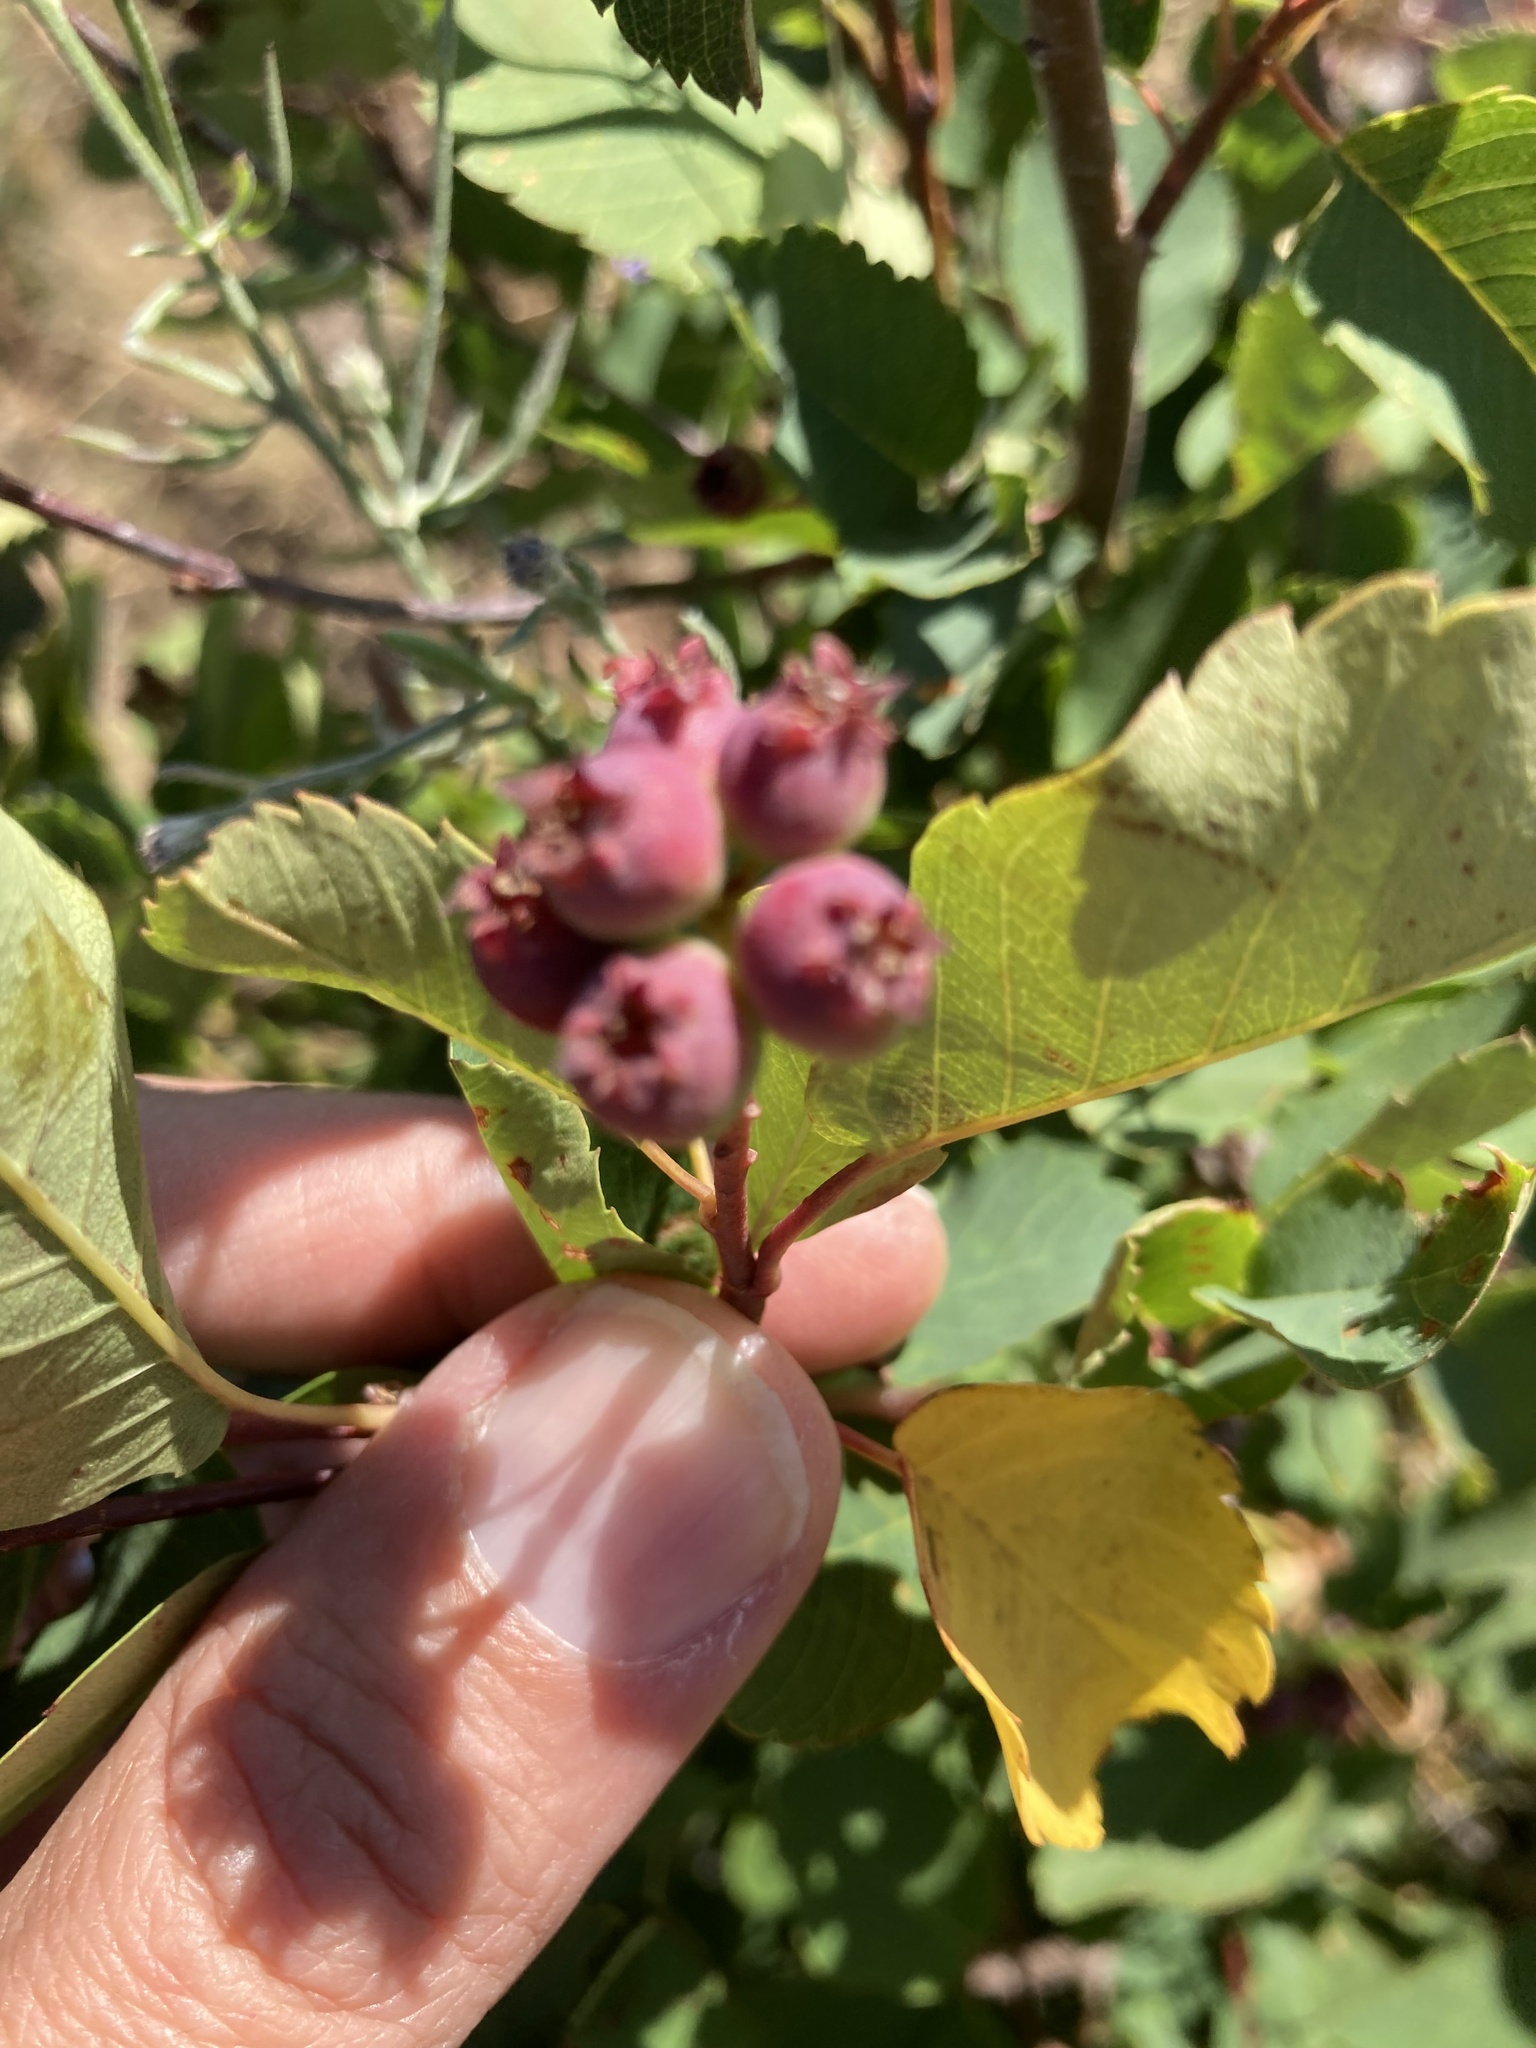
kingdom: Plantae
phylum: Tracheophyta
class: Magnoliopsida
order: Rosales
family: Rosaceae
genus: Amelanchier
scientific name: Amelanchier alnifolia
